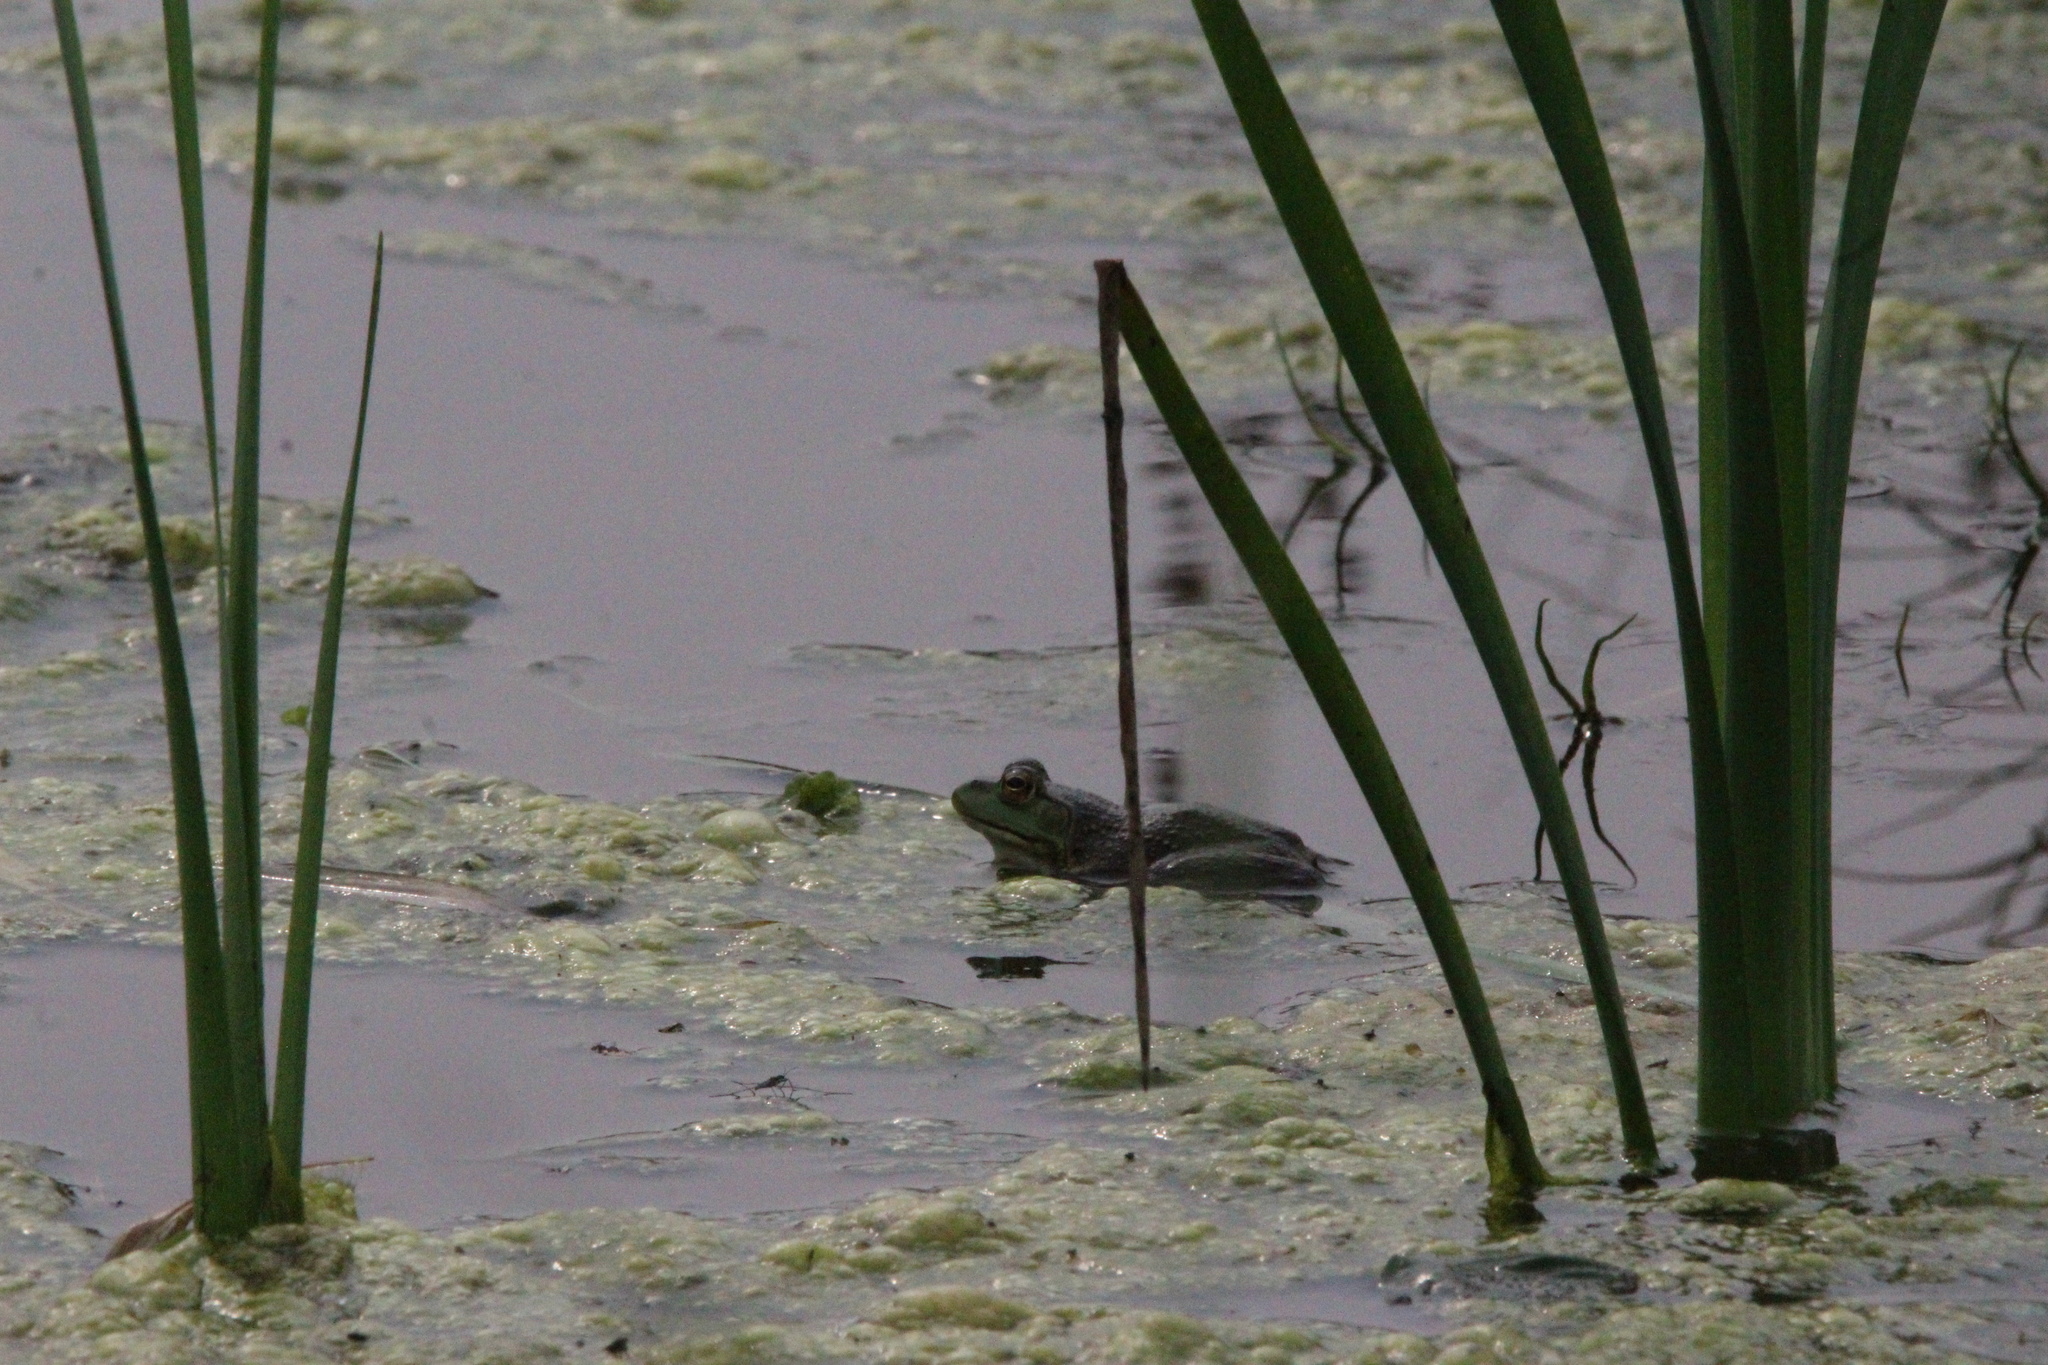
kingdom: Animalia
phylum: Chordata
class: Amphibia
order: Anura
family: Ranidae
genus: Lithobates
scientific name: Lithobates catesbeianus
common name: American bullfrog
